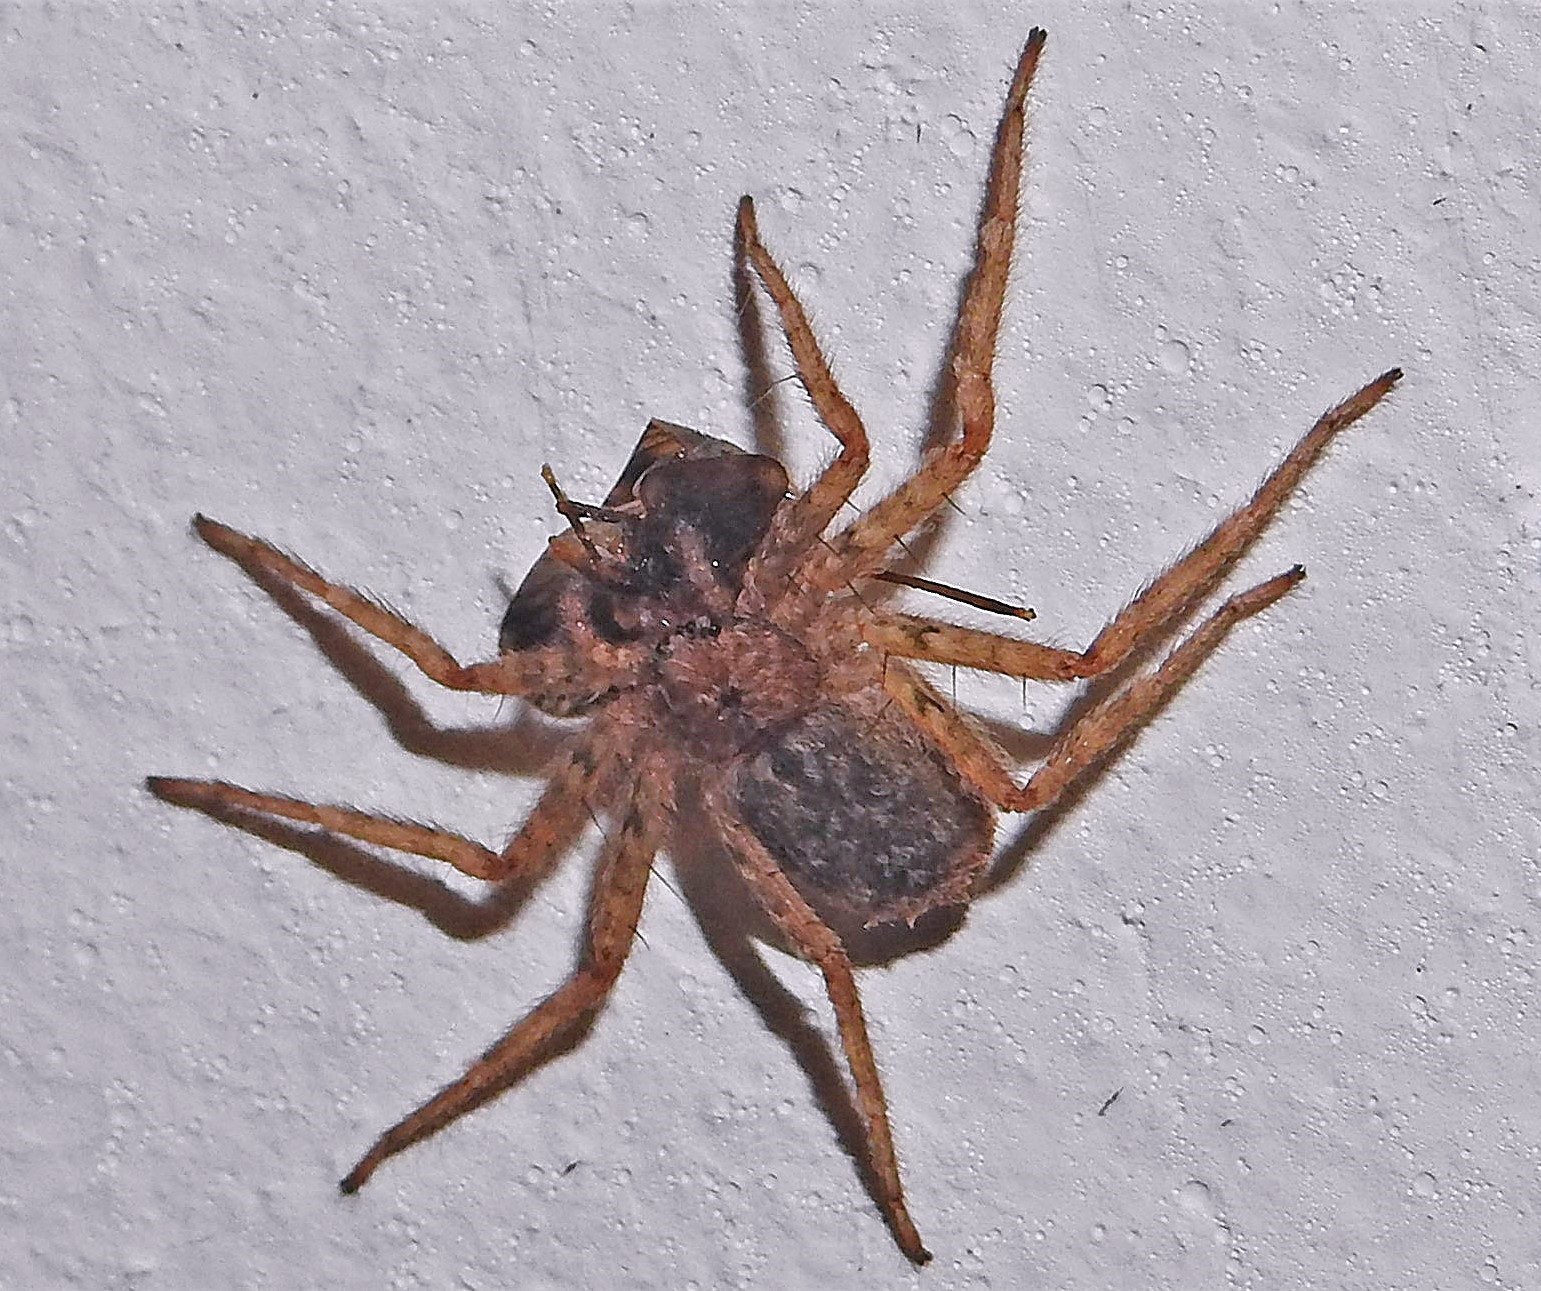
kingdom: Animalia
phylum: Arthropoda
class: Arachnida
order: Araneae
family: Selenopidae
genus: Selenops
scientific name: Selenops
